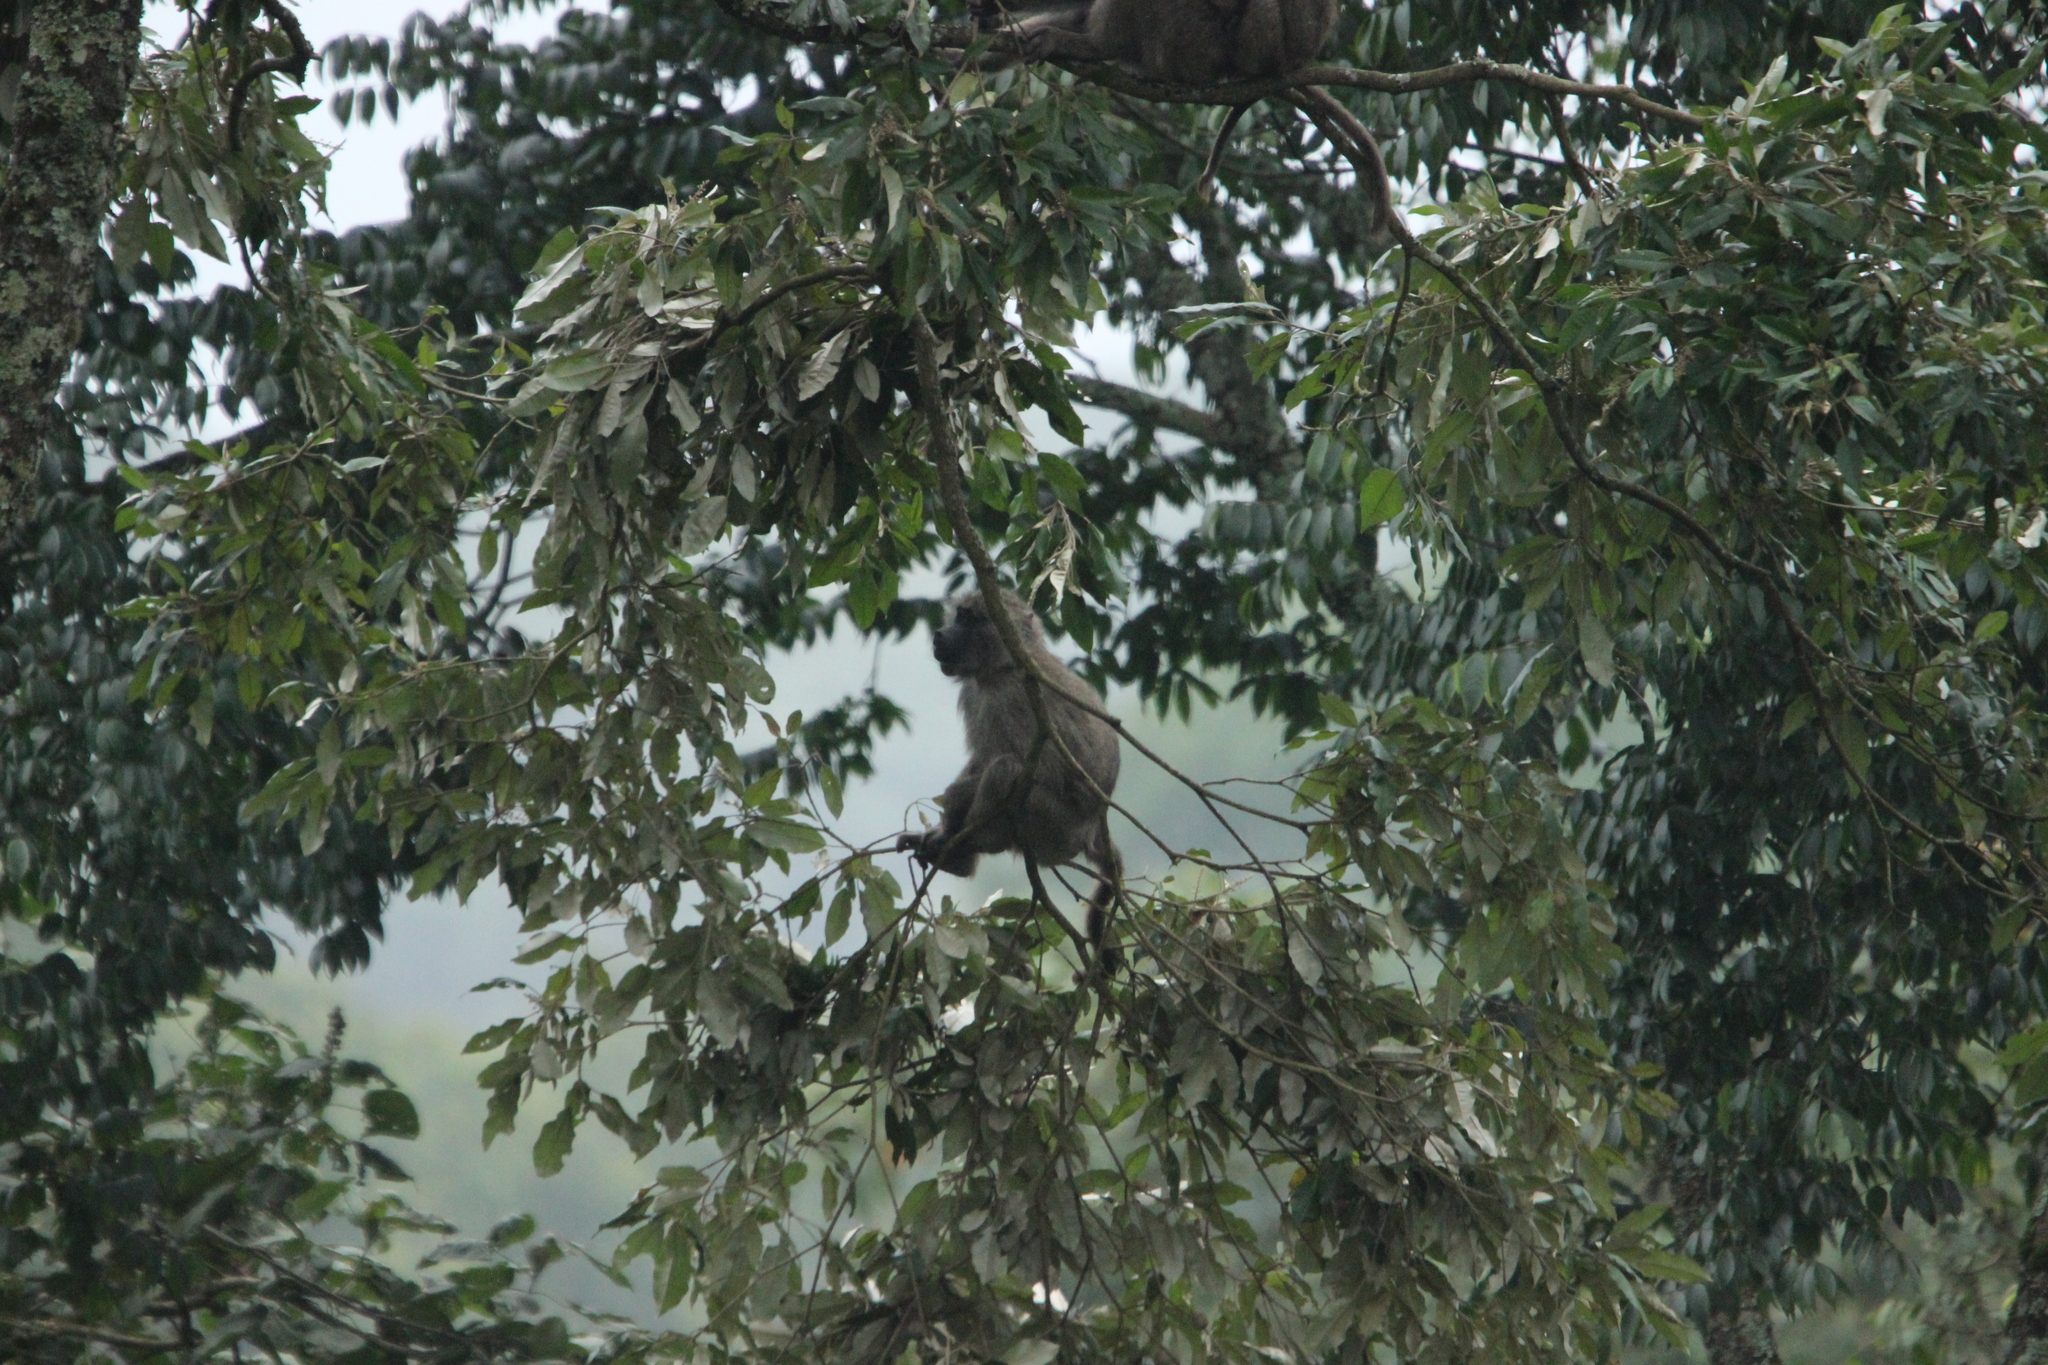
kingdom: Animalia
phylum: Chordata
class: Mammalia
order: Primates
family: Cercopithecidae
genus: Papio
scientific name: Papio anubis
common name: Olive baboon
